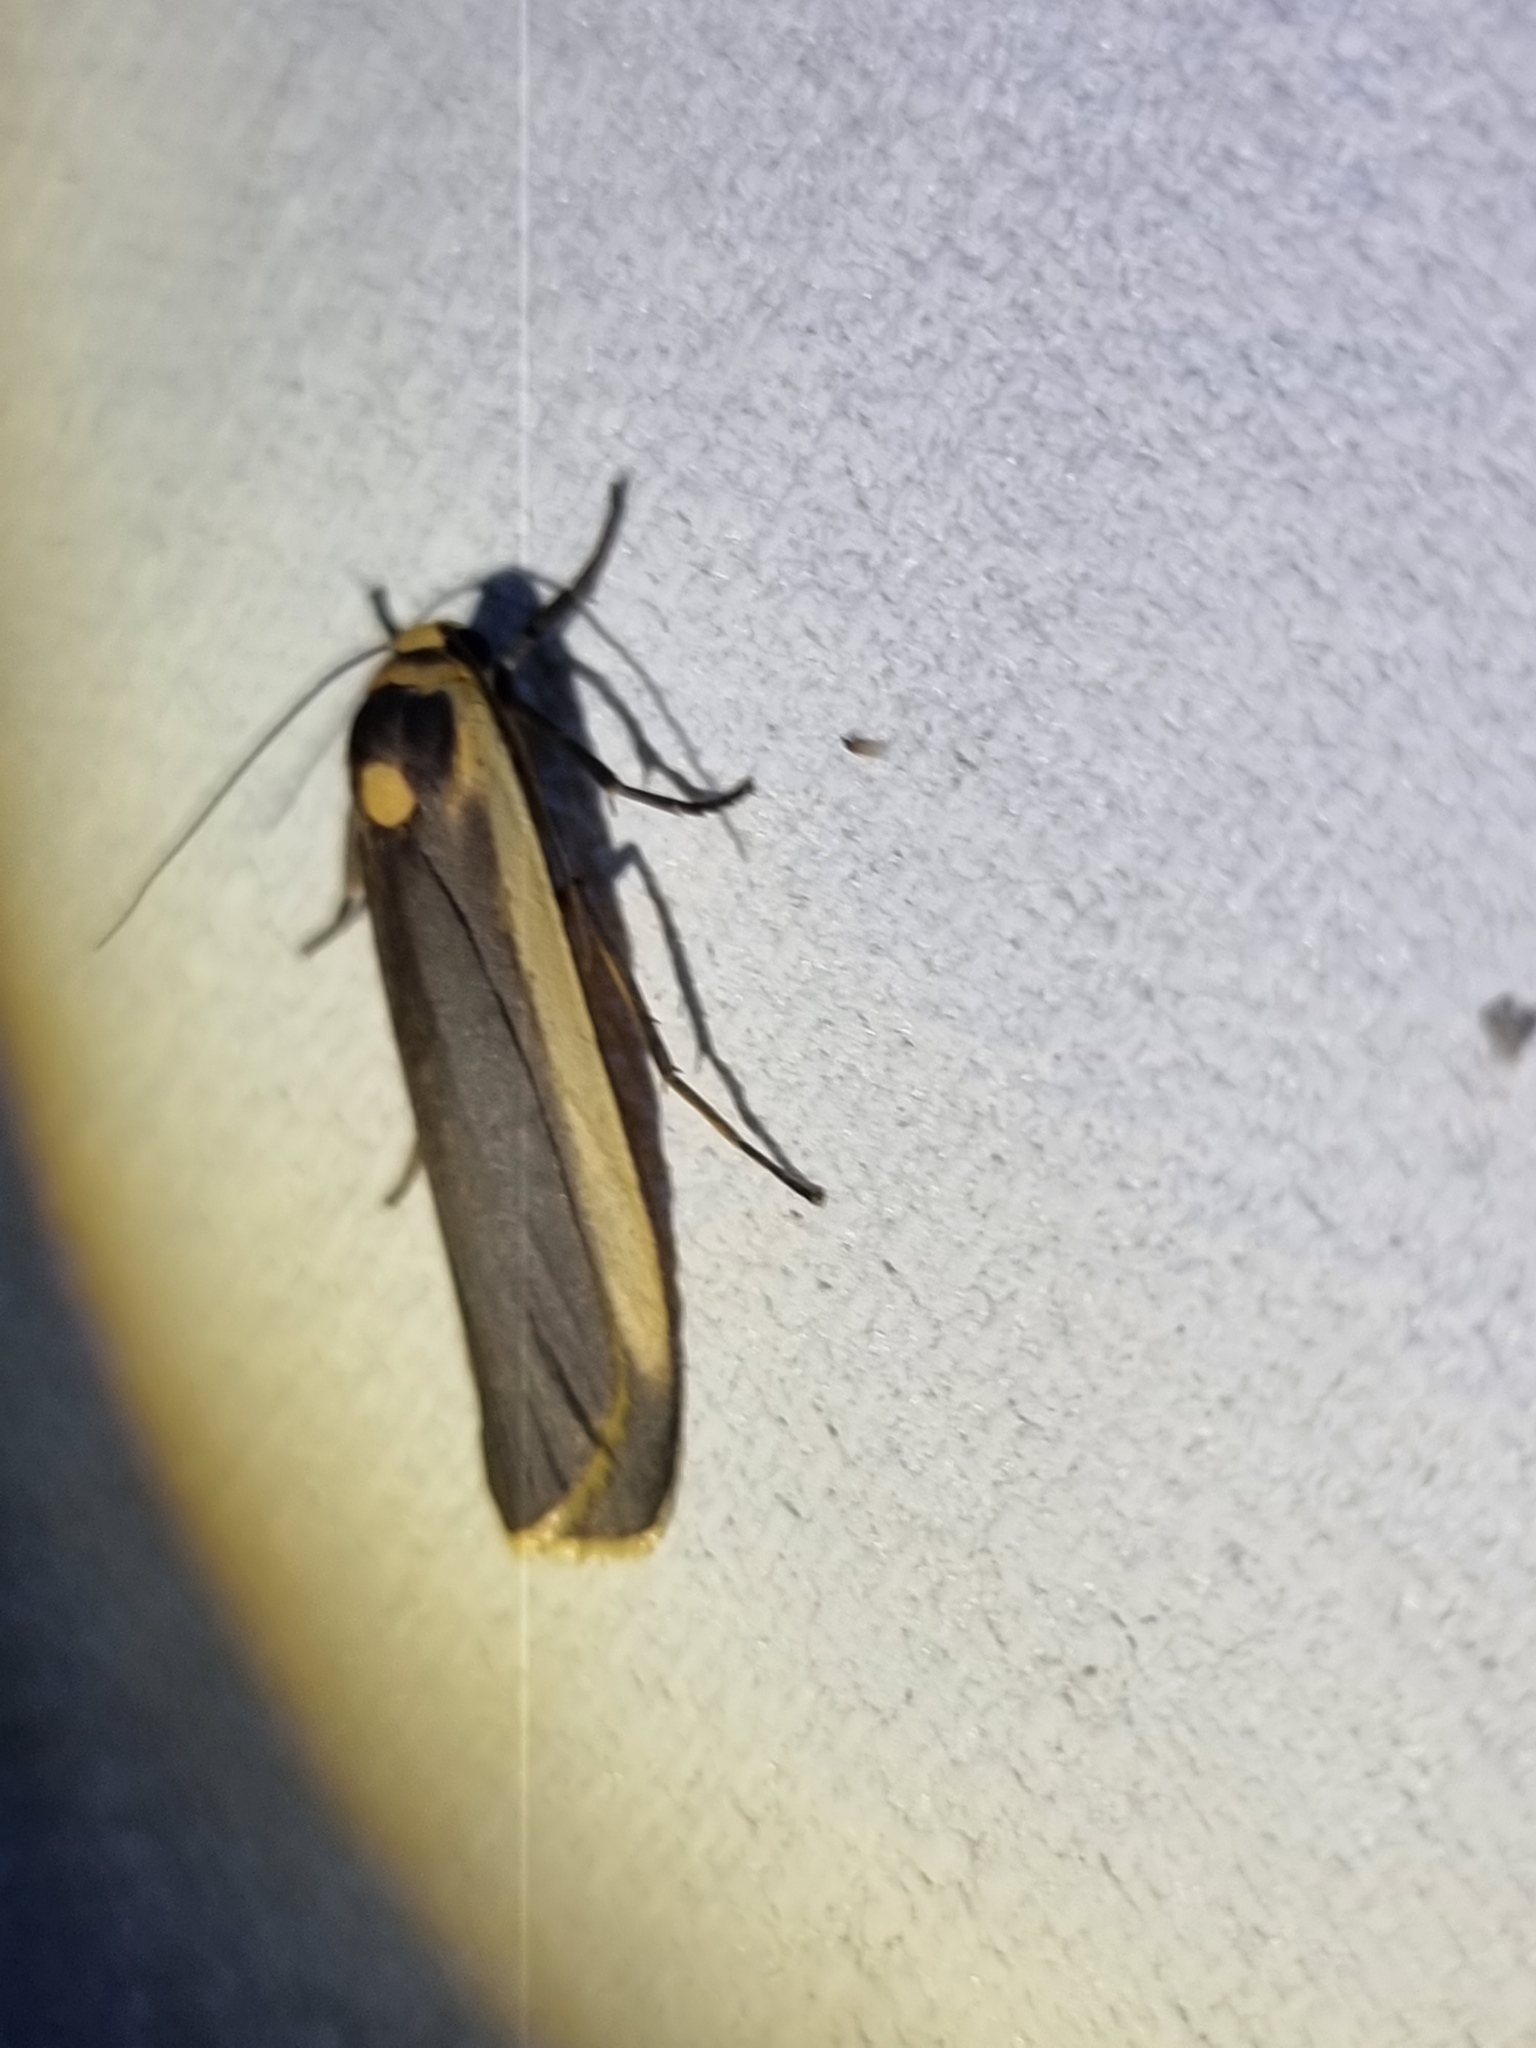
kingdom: Animalia
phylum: Arthropoda
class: Insecta
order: Lepidoptera
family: Erebidae
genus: Brunia
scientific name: Brunia replana
